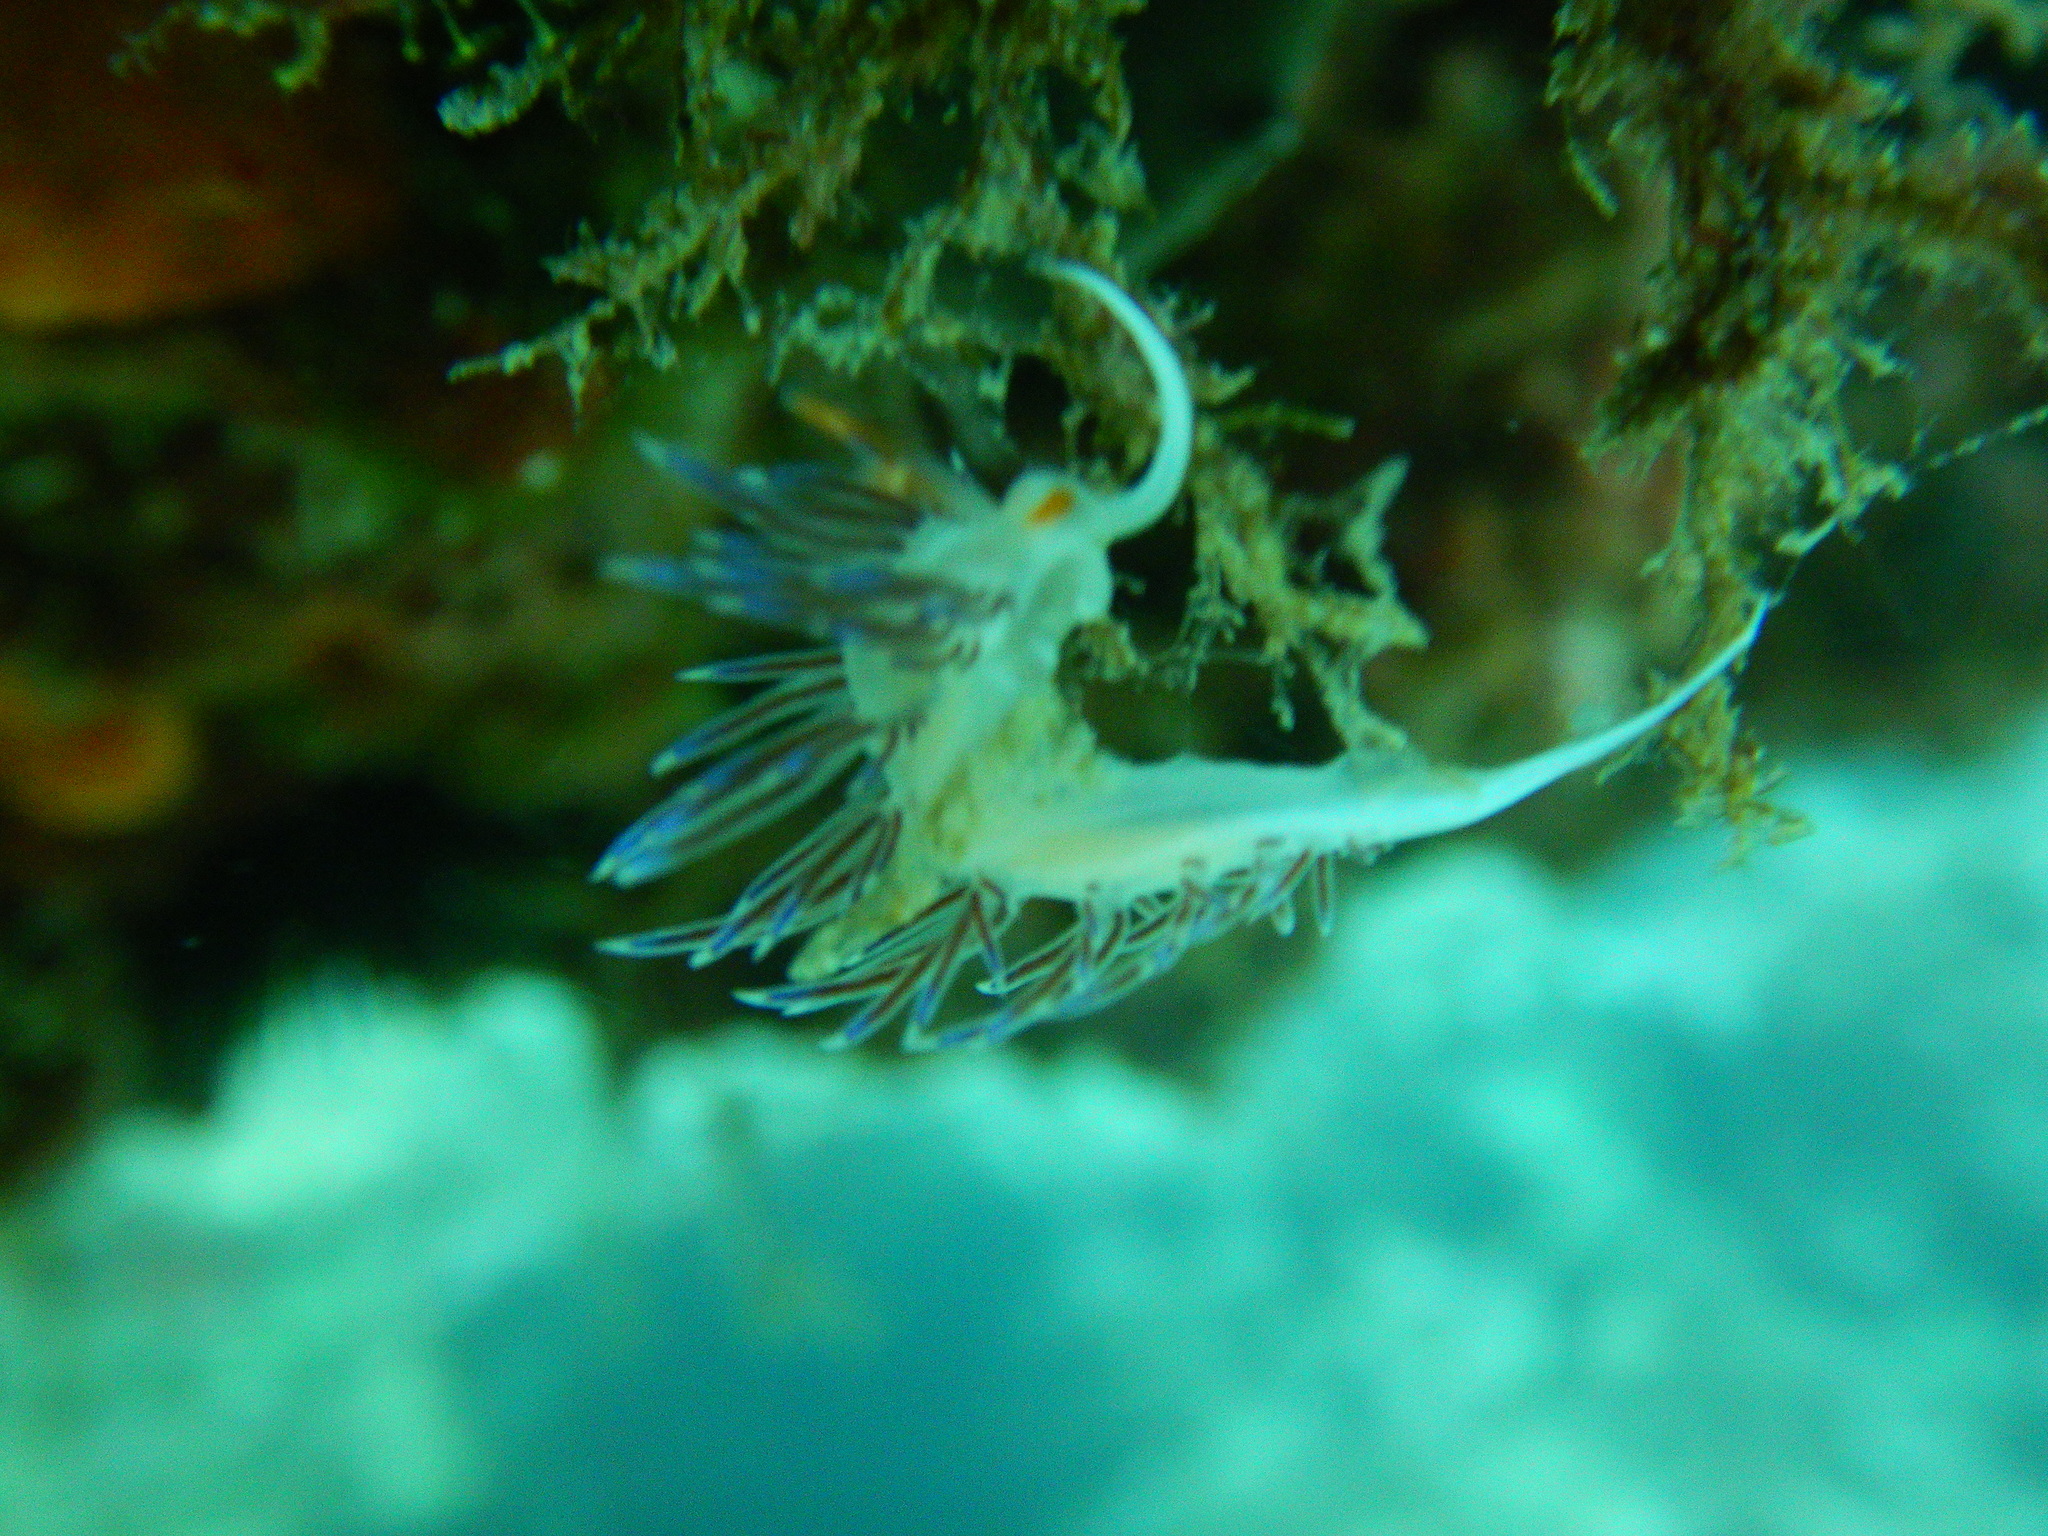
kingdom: Animalia
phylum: Mollusca
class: Gastropoda
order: Nudibranchia
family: Facelinidae
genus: Cratena
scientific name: Cratena peregrina
